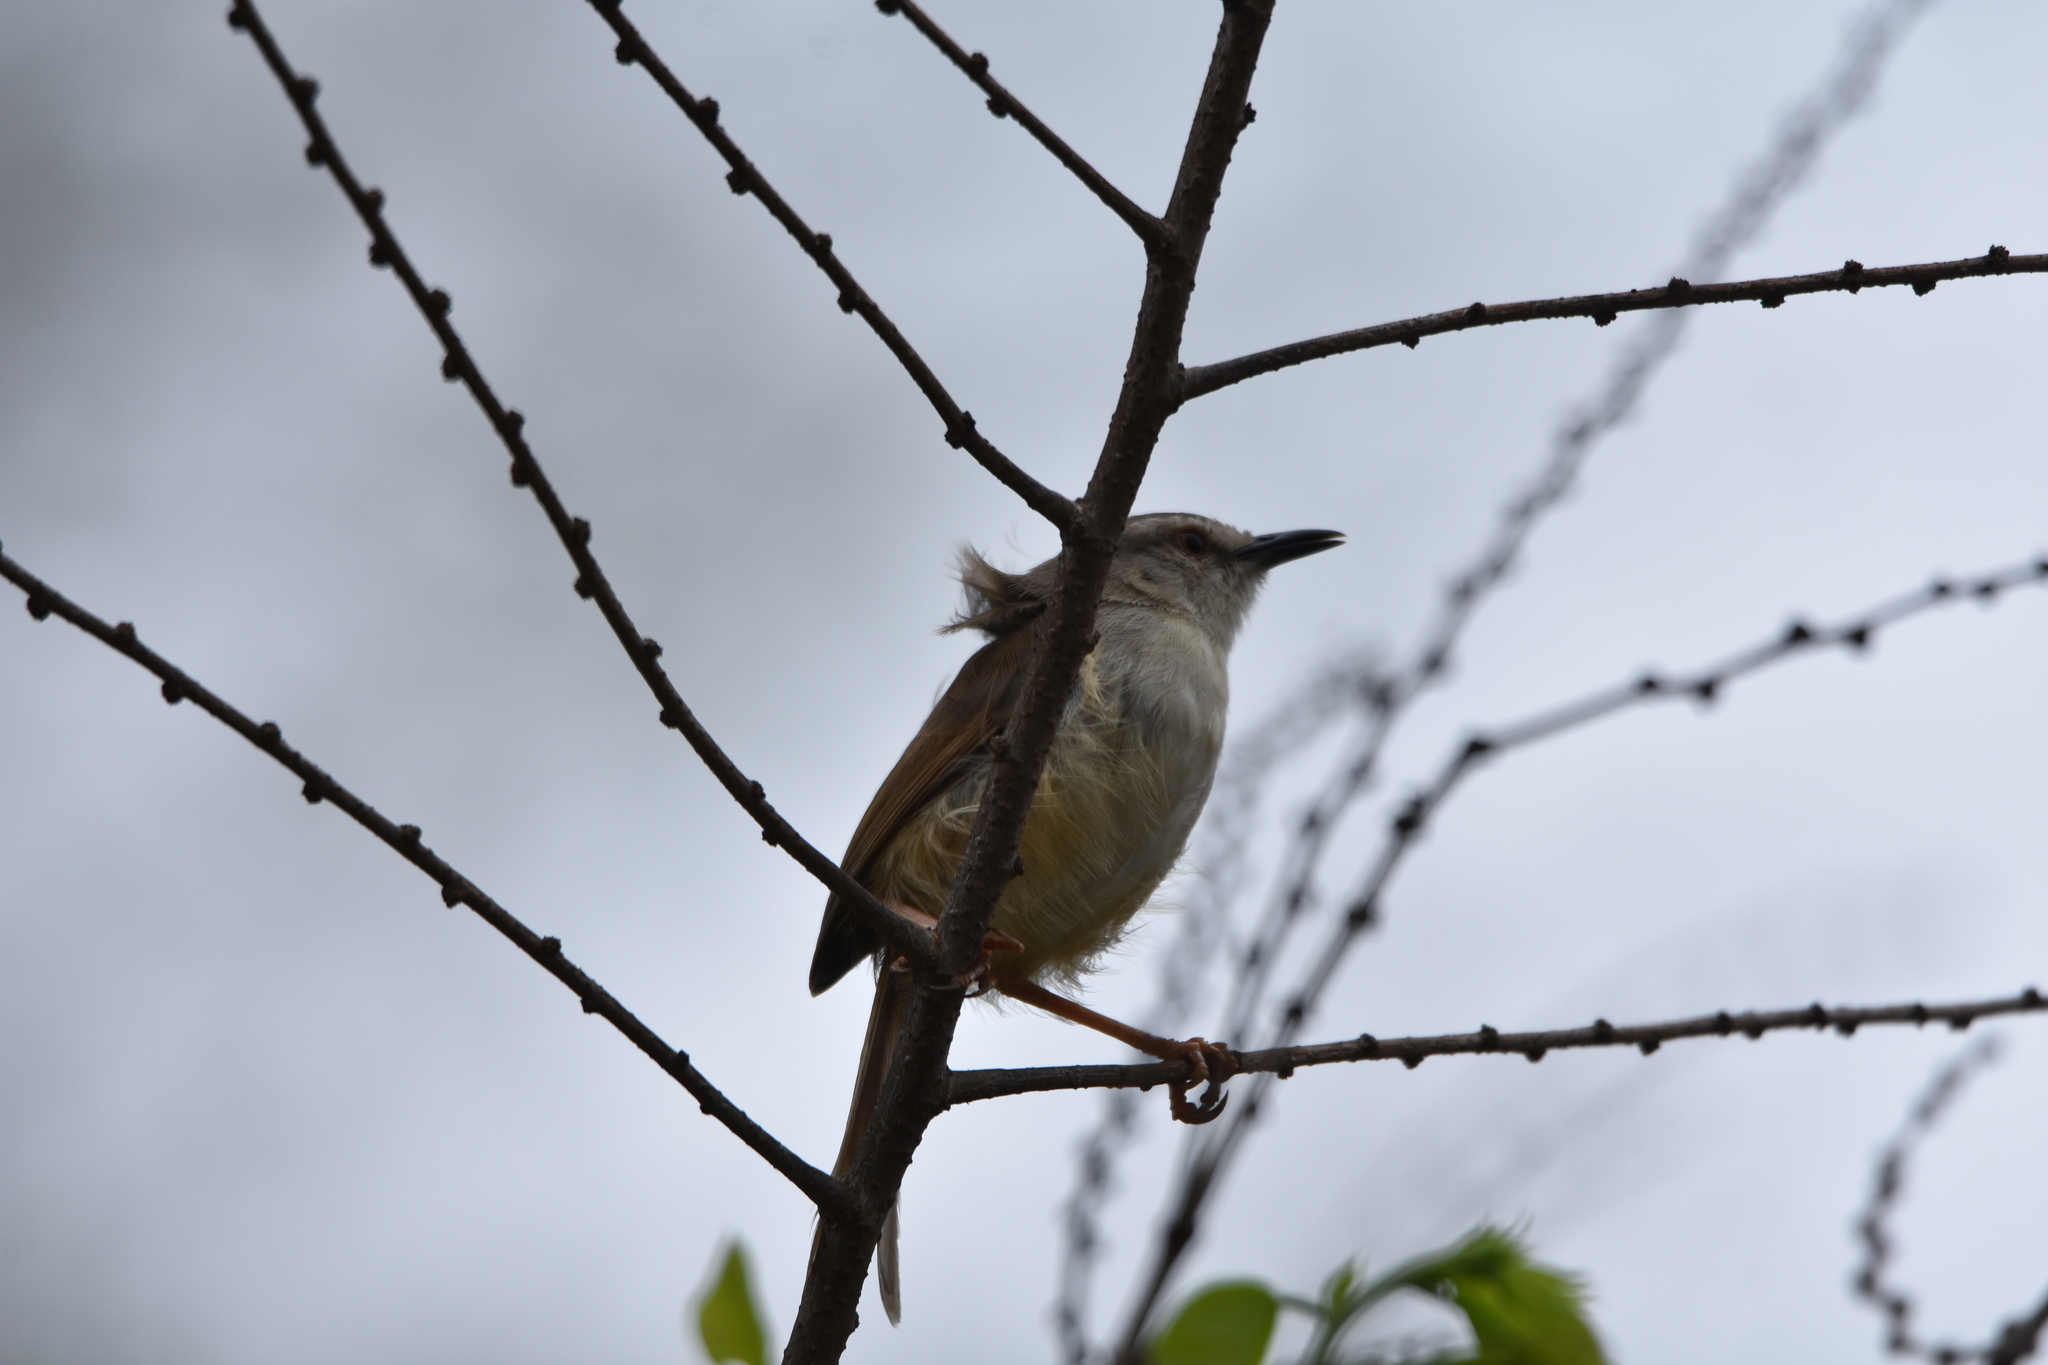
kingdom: Animalia
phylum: Chordata
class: Aves
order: Passeriformes
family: Cisticolidae
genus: Prinia
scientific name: Prinia subflava
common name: Tawny-flanked prinia
